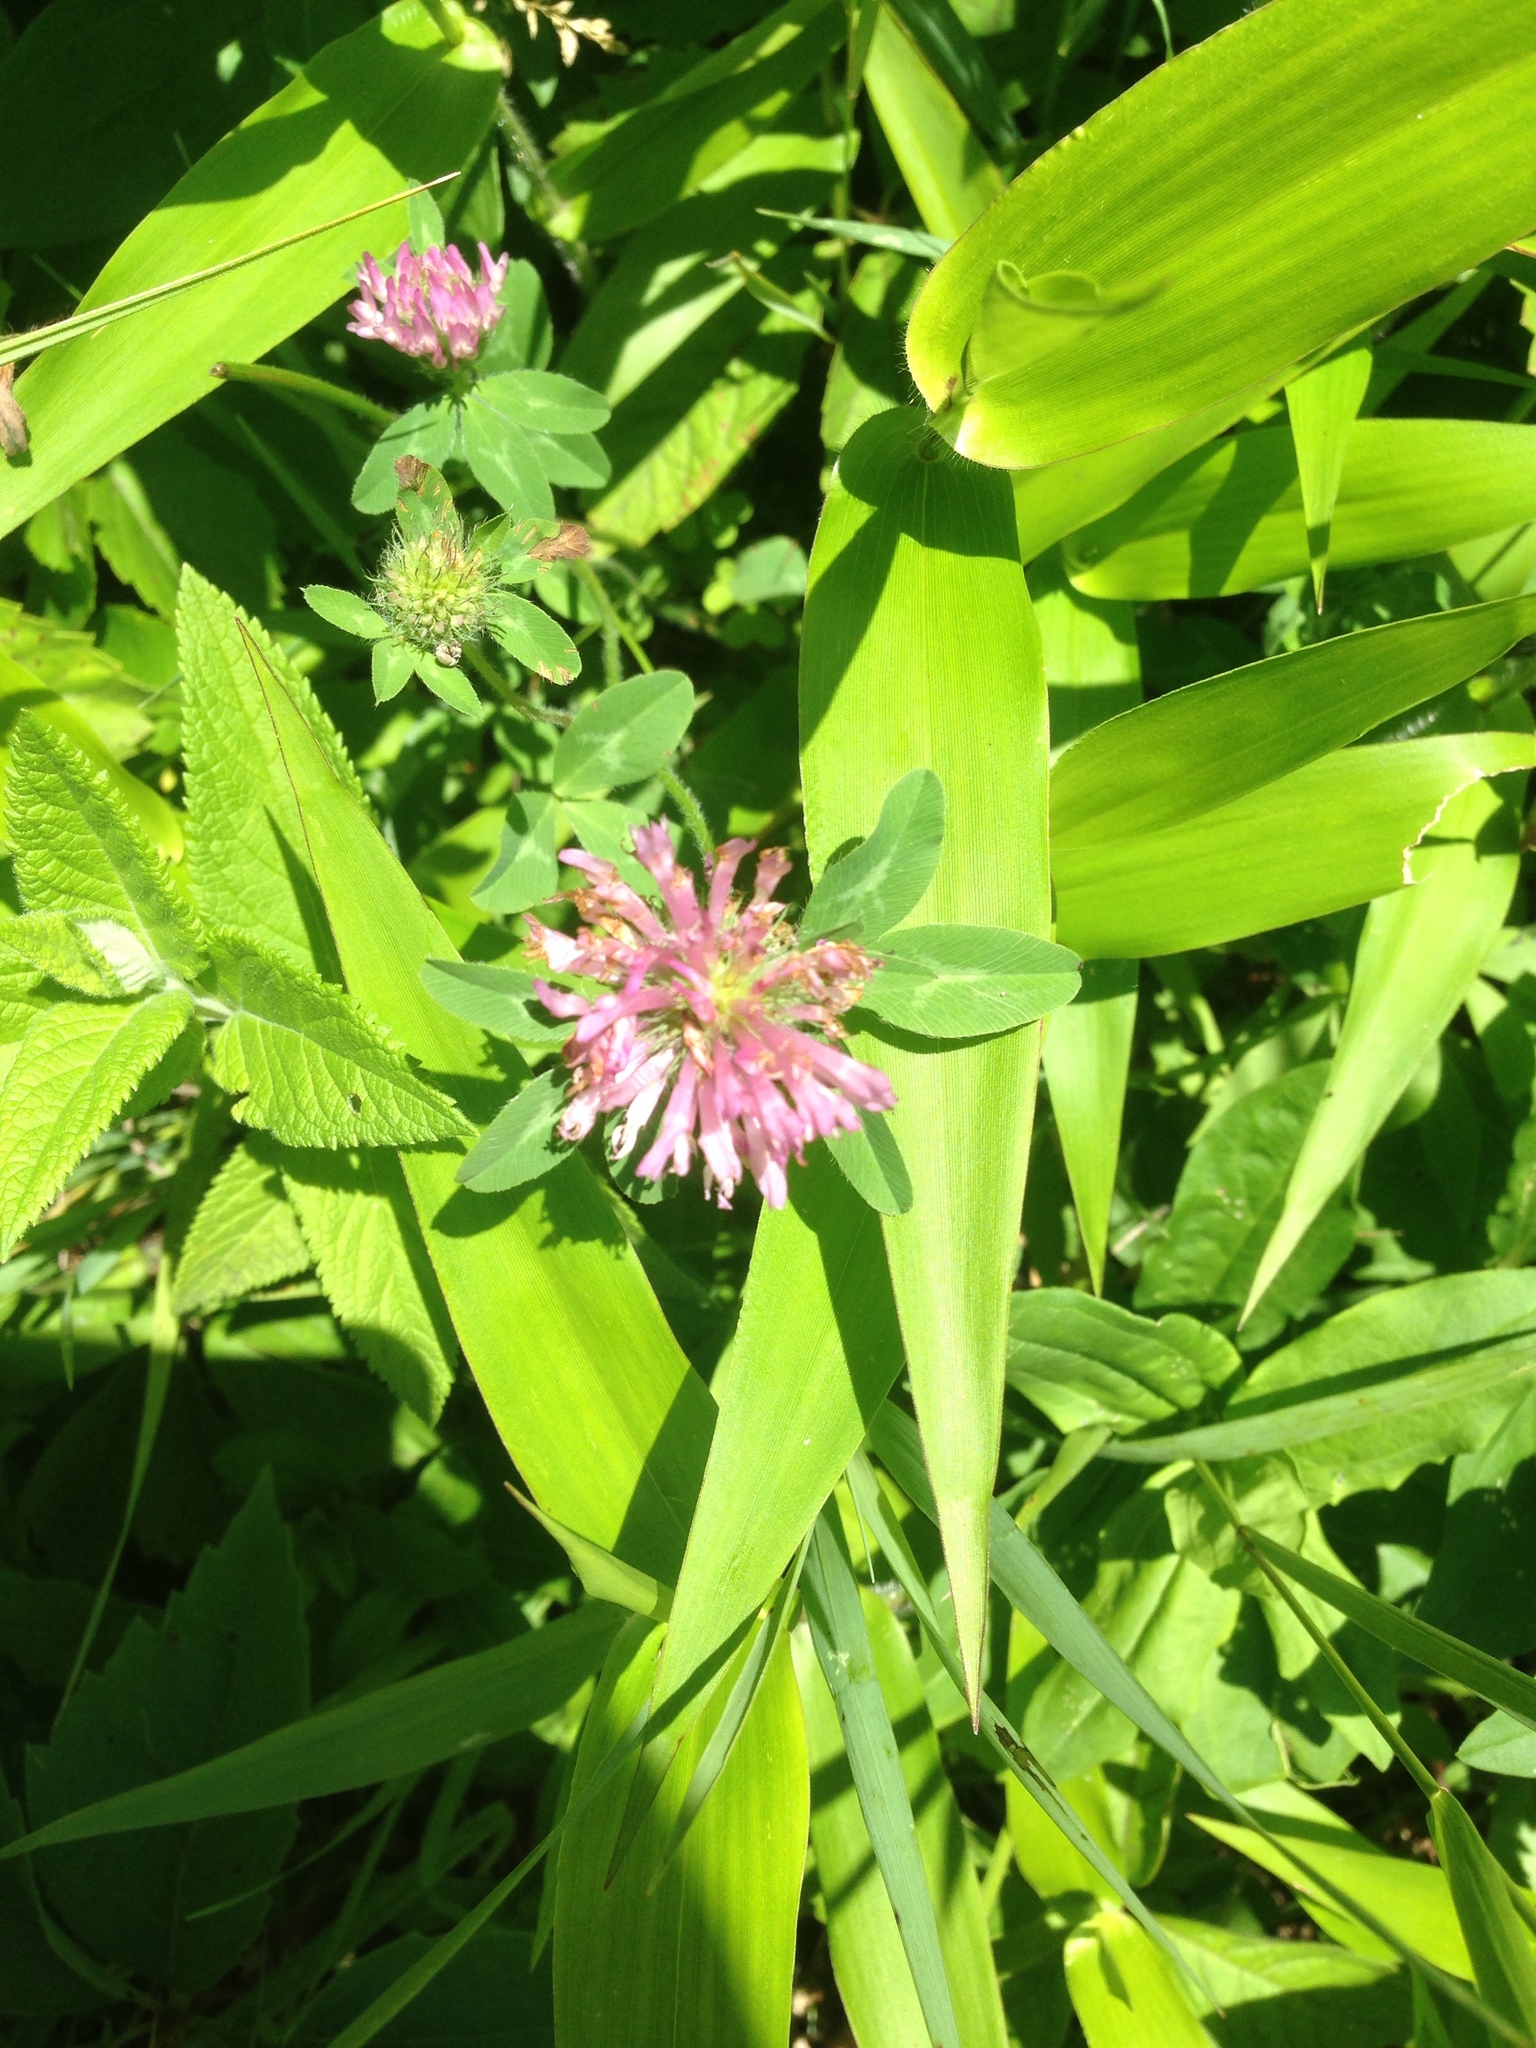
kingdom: Plantae
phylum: Tracheophyta
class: Magnoliopsida
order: Fabales
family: Fabaceae
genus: Trifolium
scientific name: Trifolium pratense
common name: Red clover
